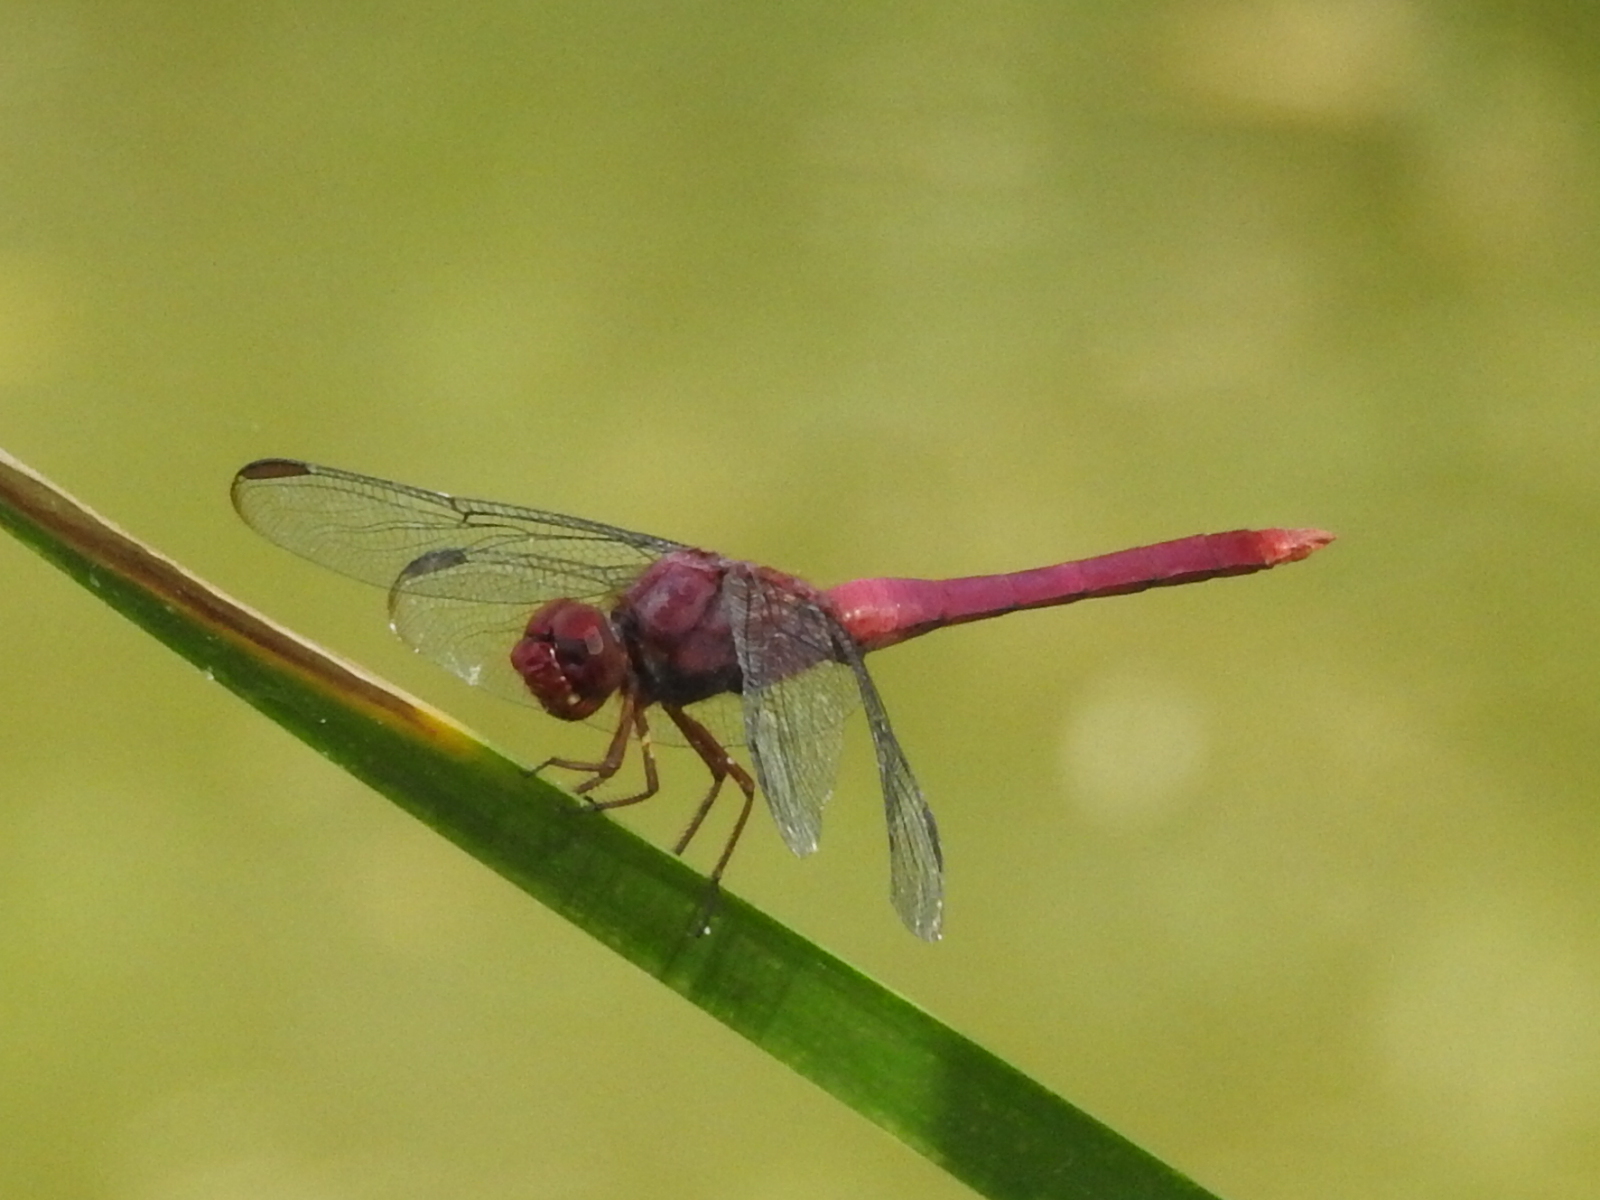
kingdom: Animalia
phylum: Arthropoda
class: Insecta
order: Odonata
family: Libellulidae
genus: Orthemis
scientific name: Orthemis discolor
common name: Carmine skimmer
